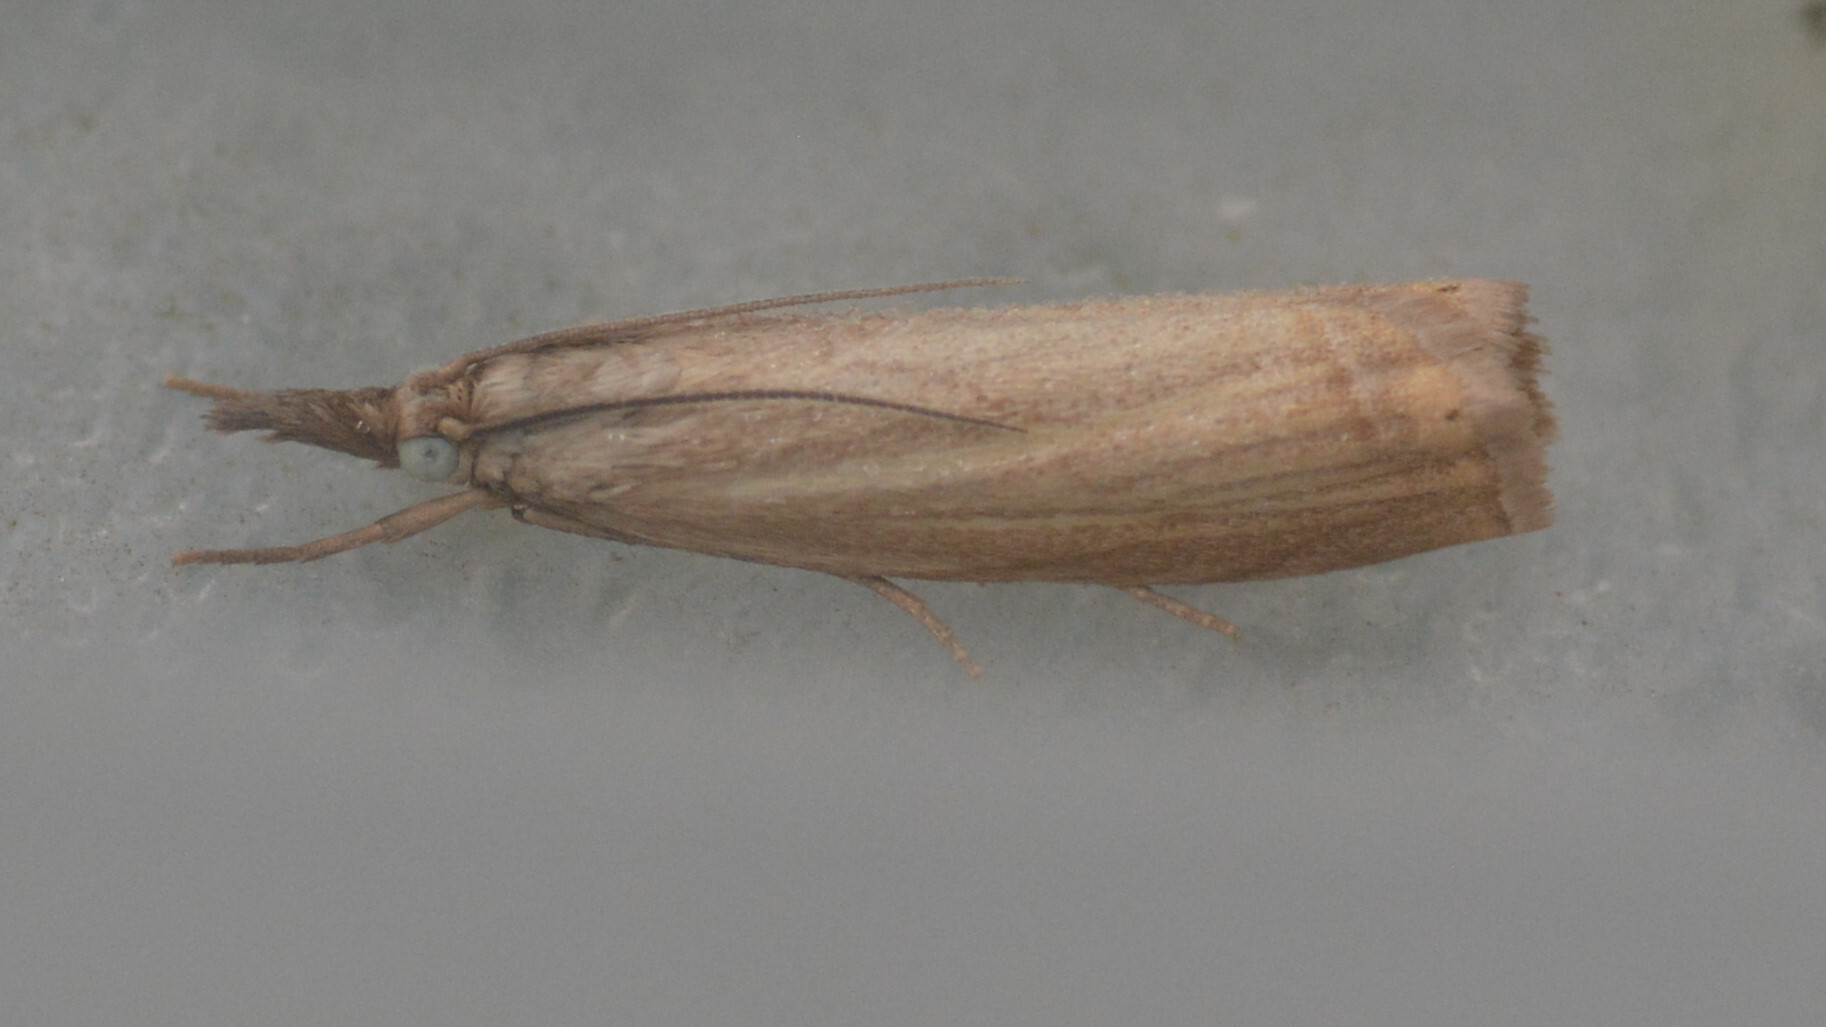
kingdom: Animalia
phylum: Arthropoda
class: Insecta
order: Lepidoptera
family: Crambidae
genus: Chrysoteuchia
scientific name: Chrysoteuchia culmella
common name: Garden grass-veneer
